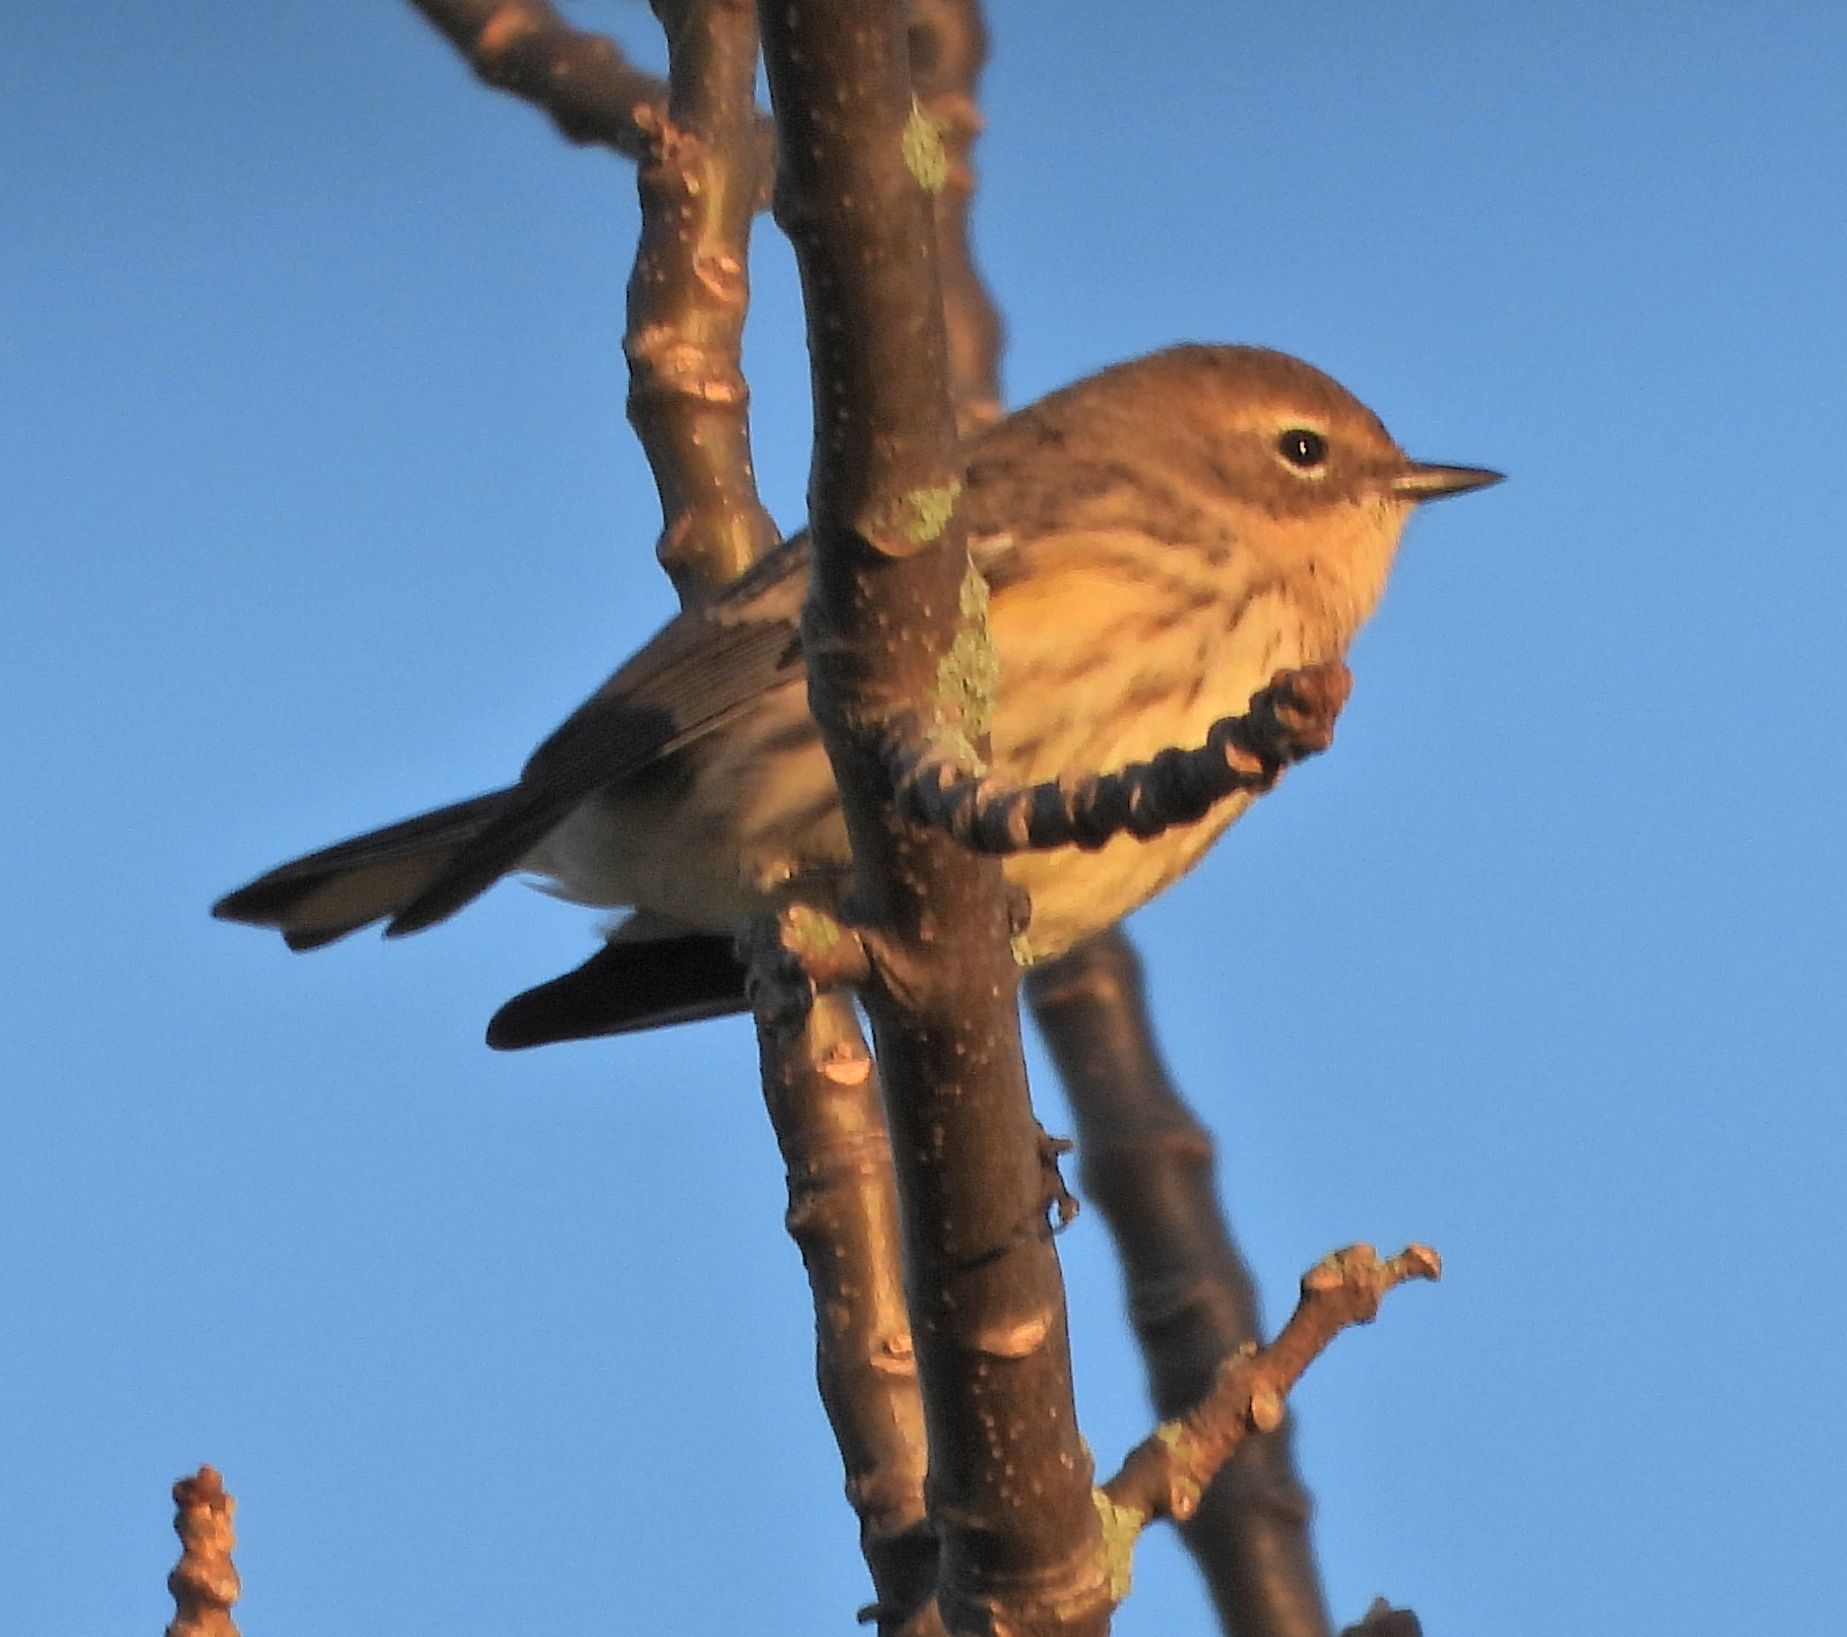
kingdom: Animalia
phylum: Chordata
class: Aves
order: Passeriformes
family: Parulidae
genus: Setophaga
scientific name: Setophaga coronata
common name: Myrtle warbler
